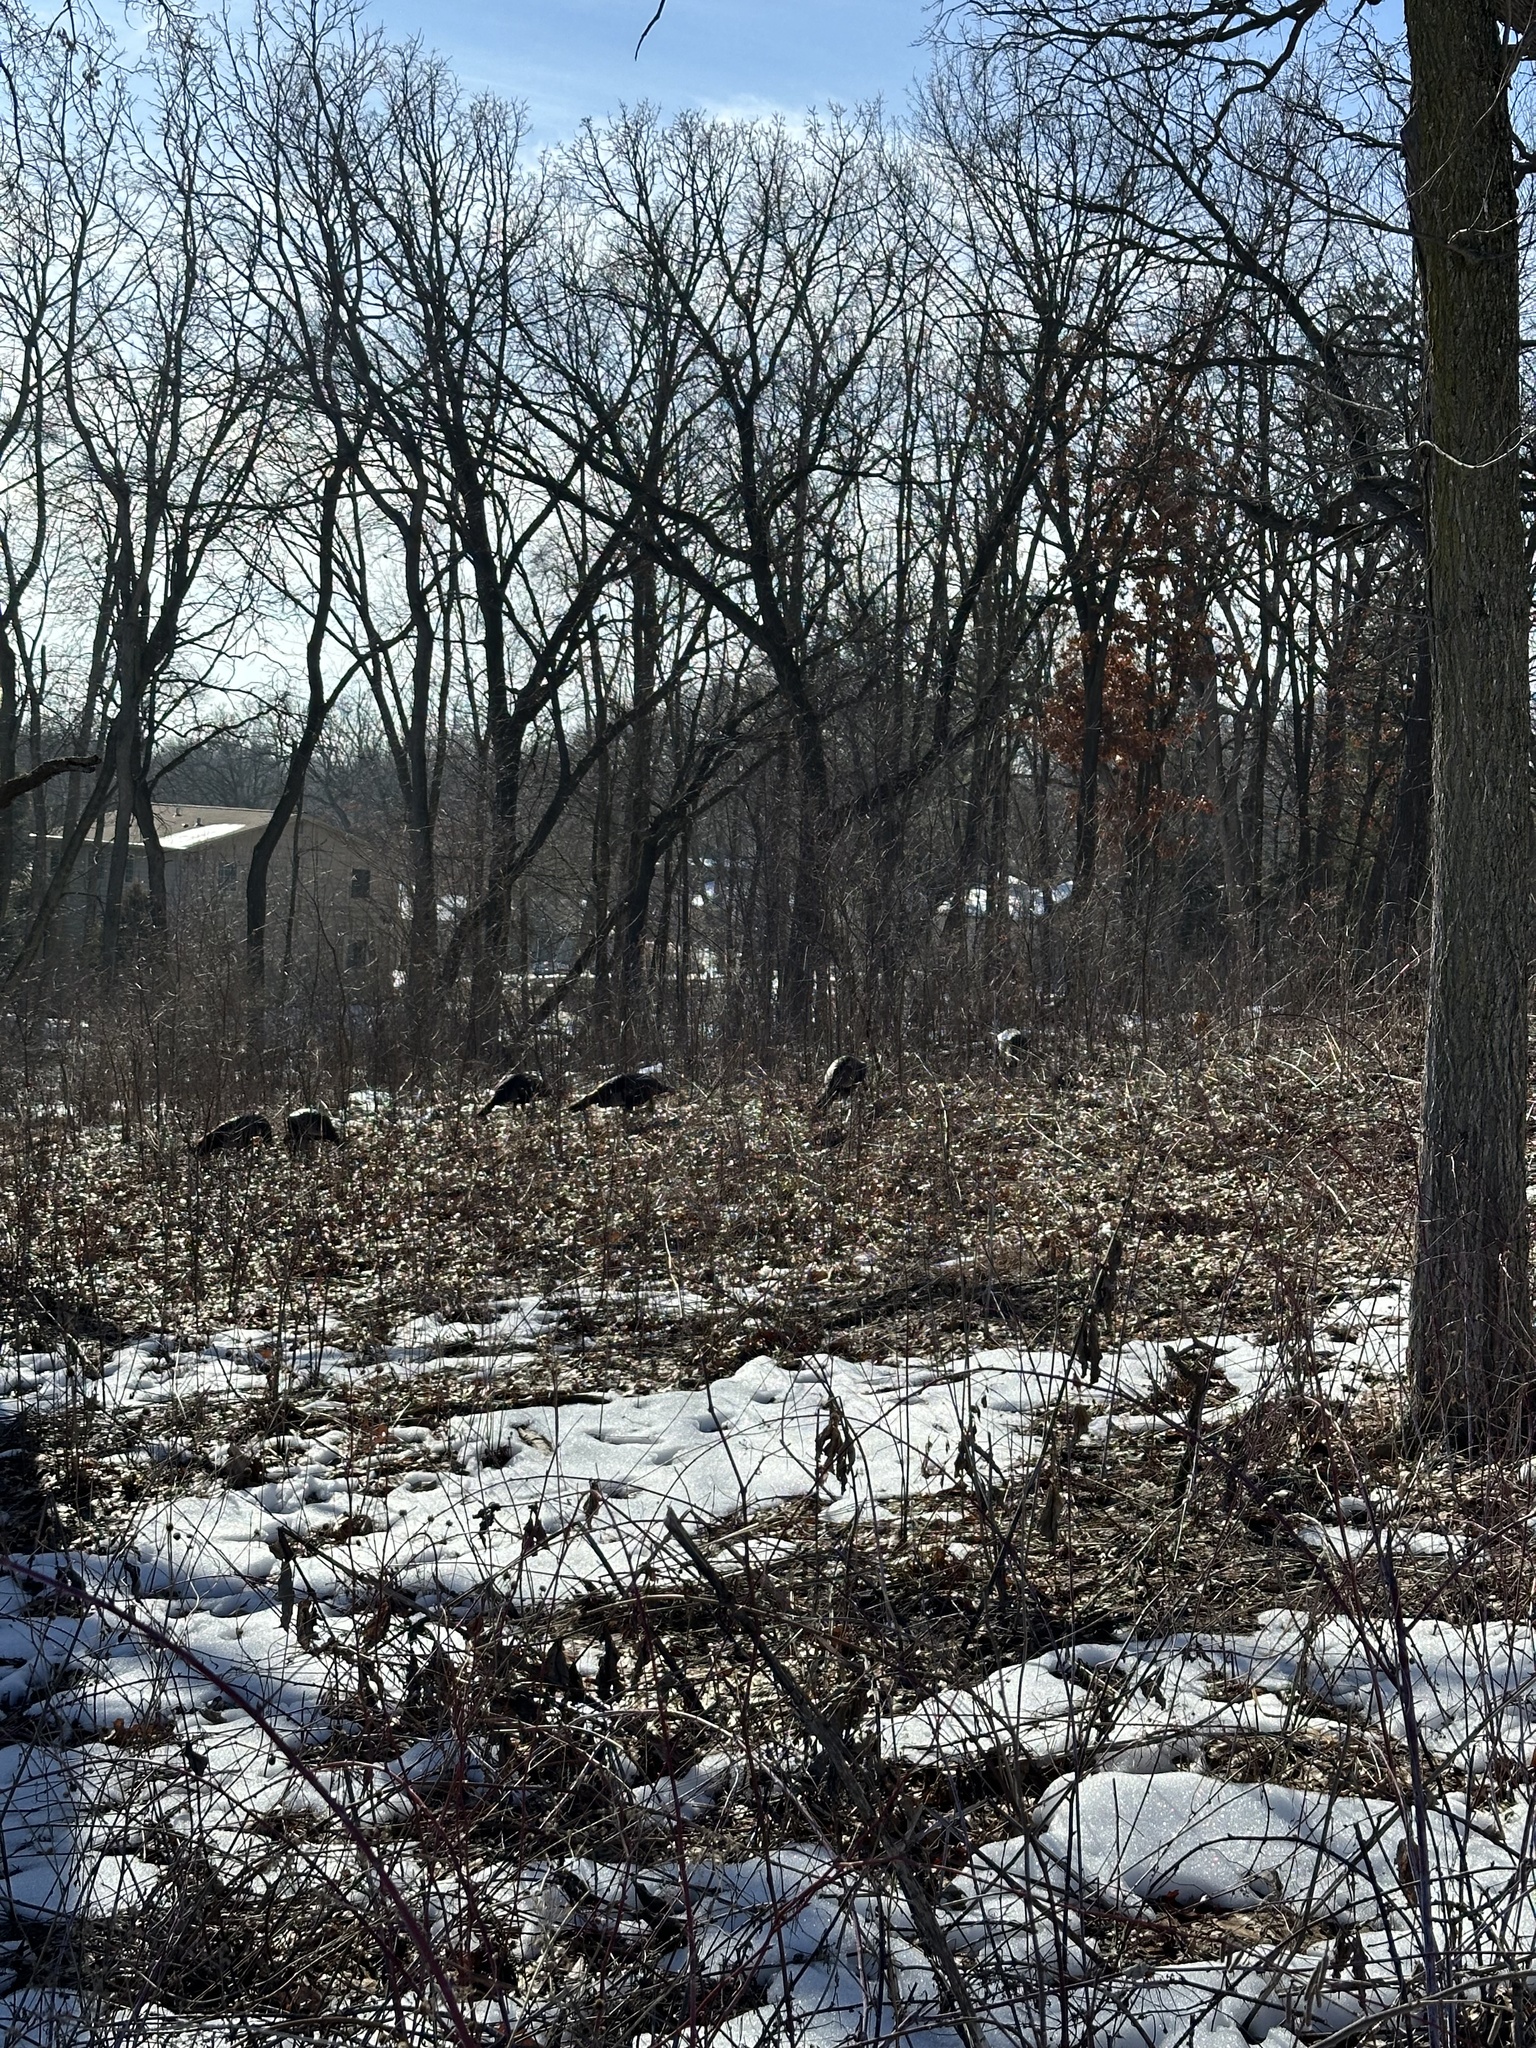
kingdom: Animalia
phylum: Chordata
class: Aves
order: Galliformes
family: Phasianidae
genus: Meleagris
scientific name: Meleagris gallopavo
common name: Wild turkey
